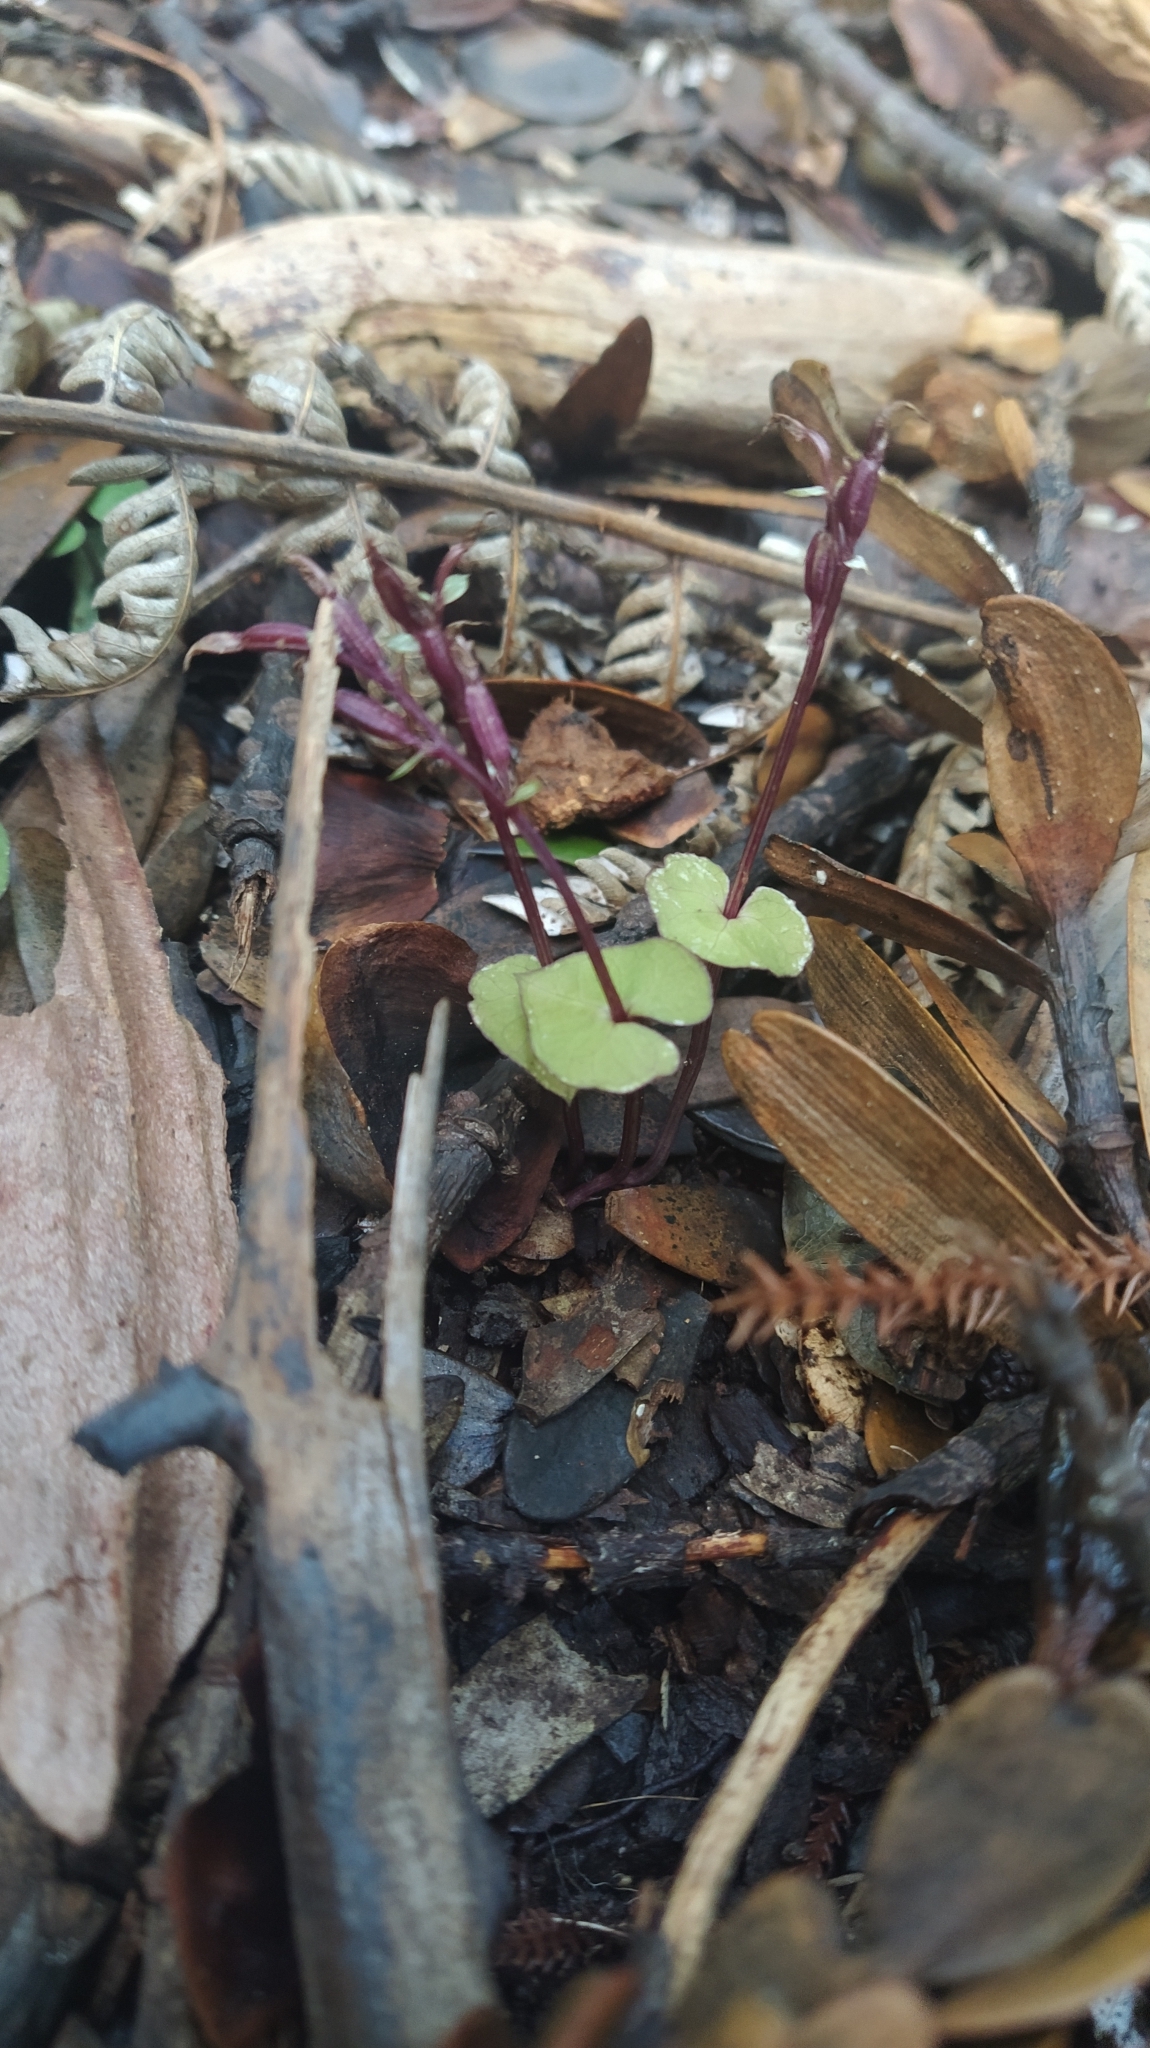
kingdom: Plantae
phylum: Tracheophyta
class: Liliopsida
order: Asparagales
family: Orchidaceae
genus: Acianthus
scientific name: Acianthus sinclairii
